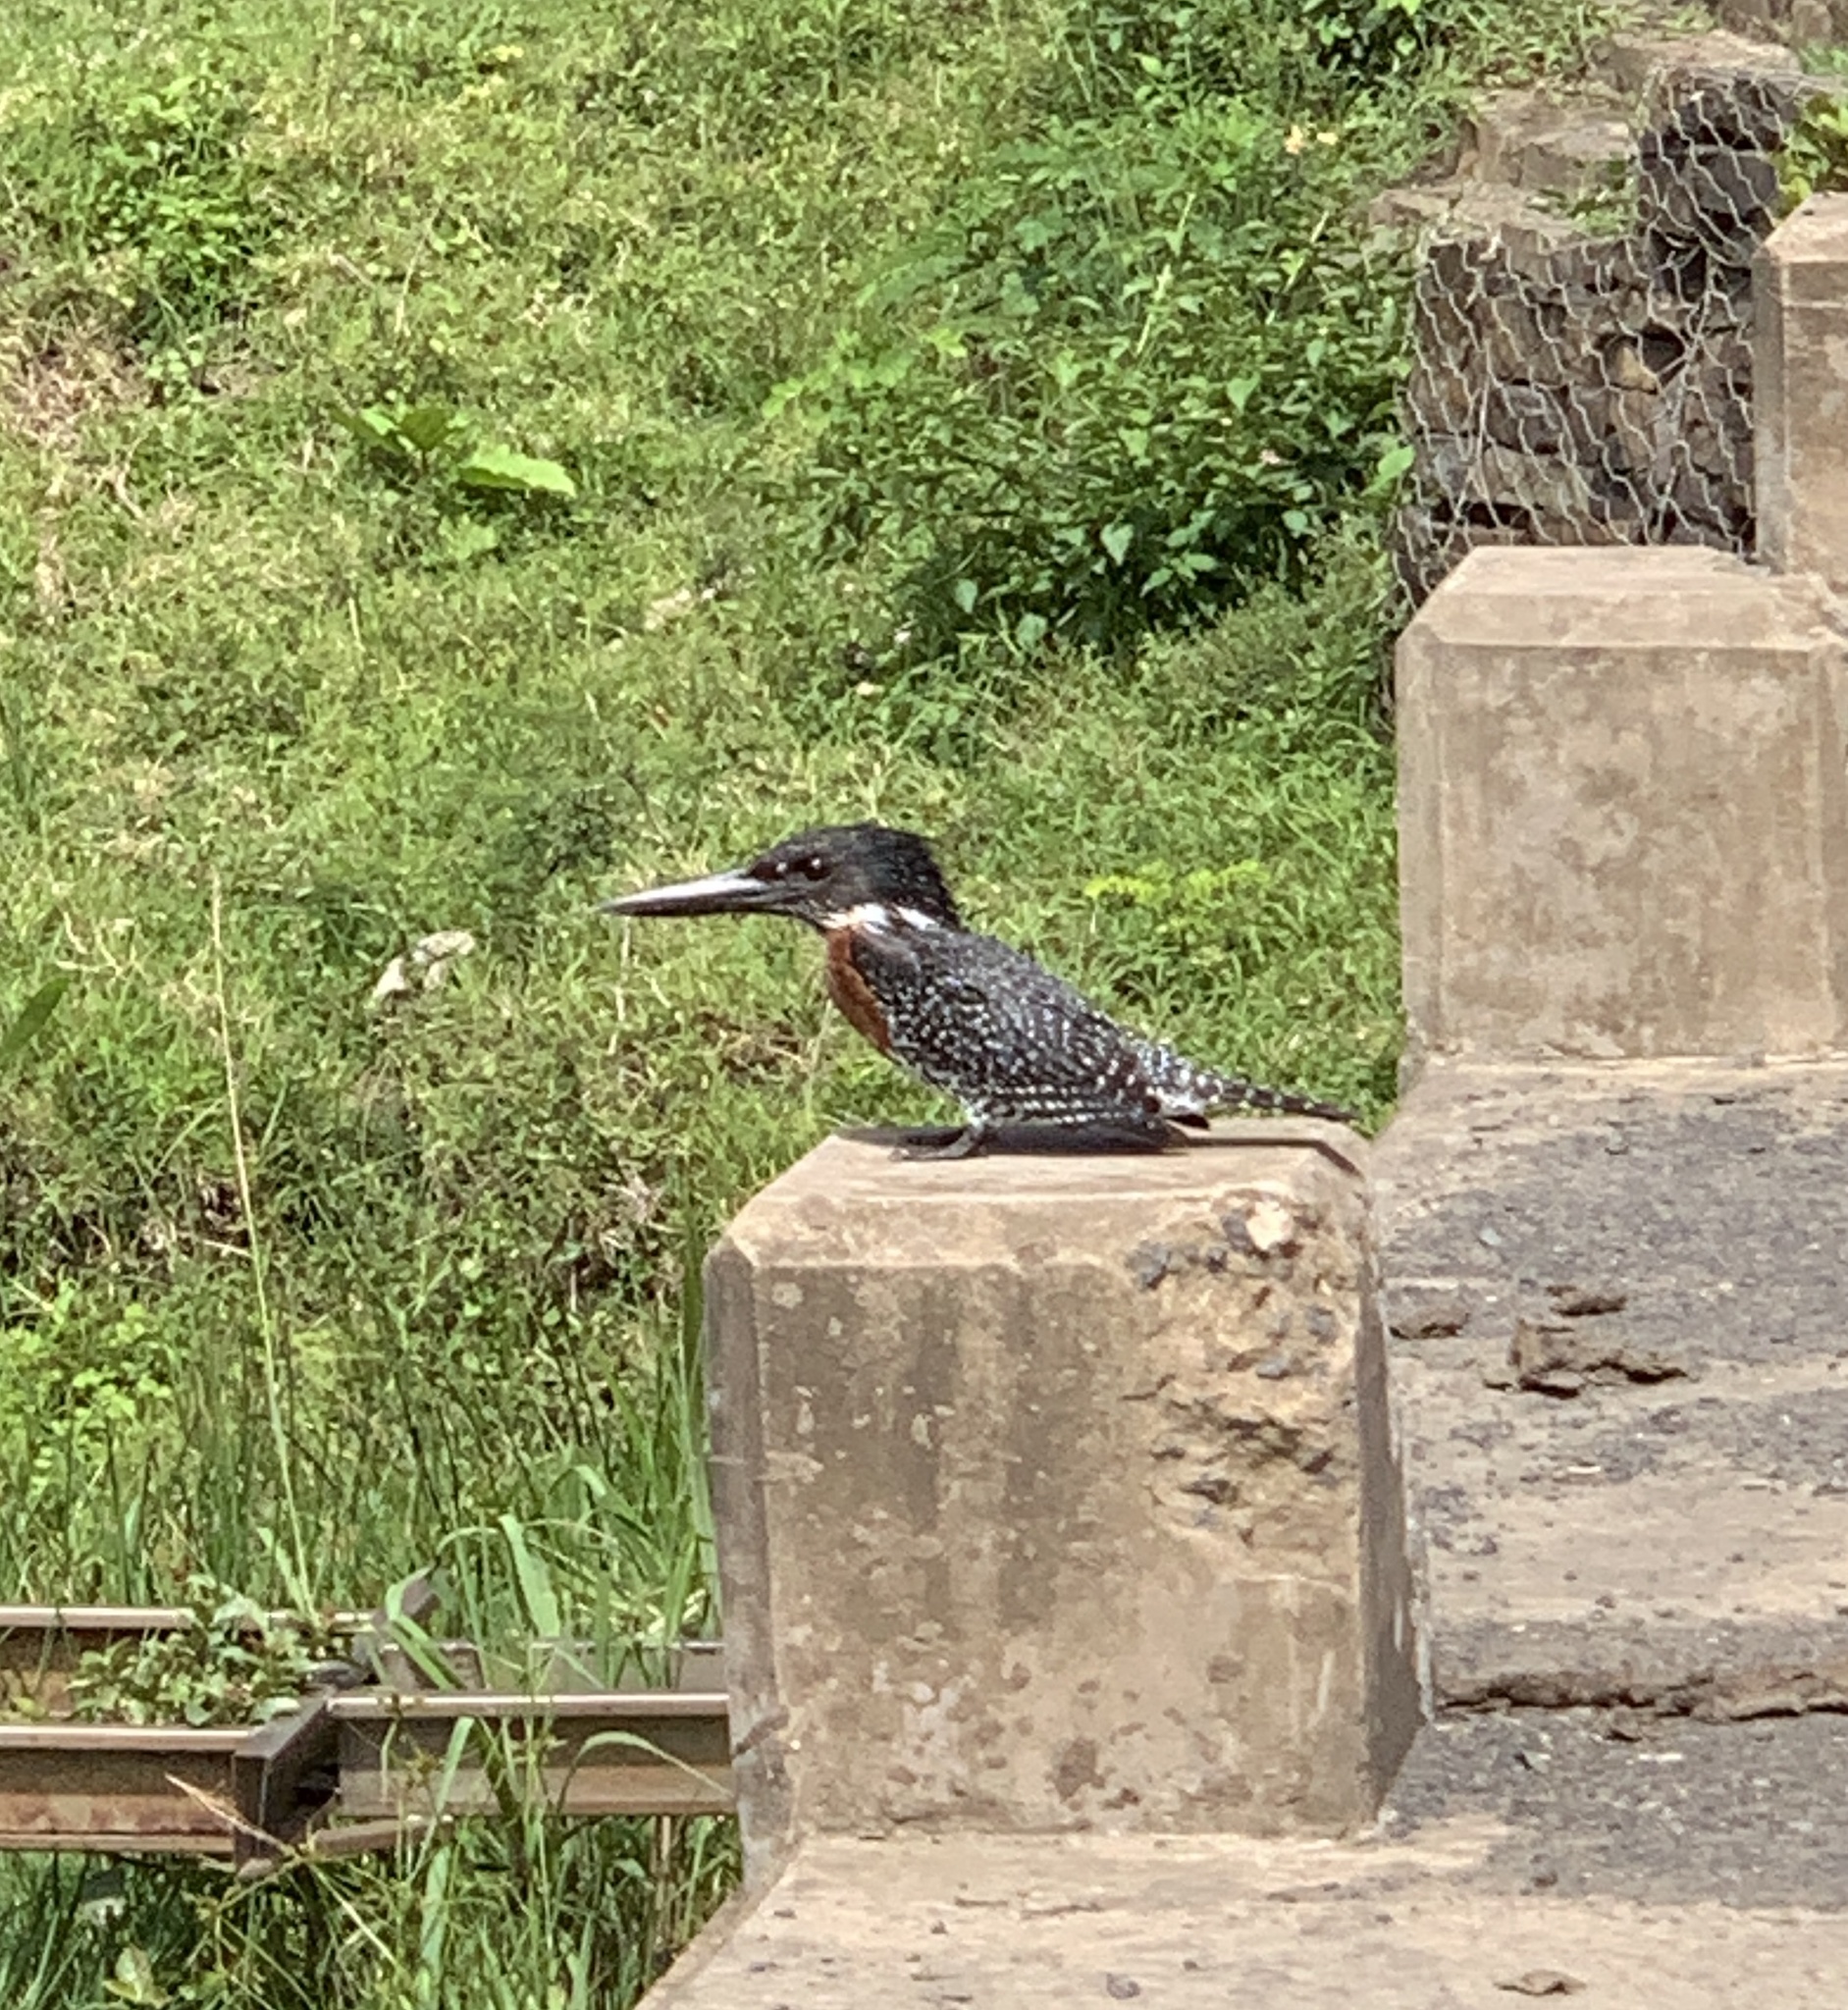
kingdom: Animalia
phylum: Chordata
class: Aves
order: Coraciiformes
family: Alcedinidae
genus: Megaceryle
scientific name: Megaceryle maxima
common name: Giant kingfisher
